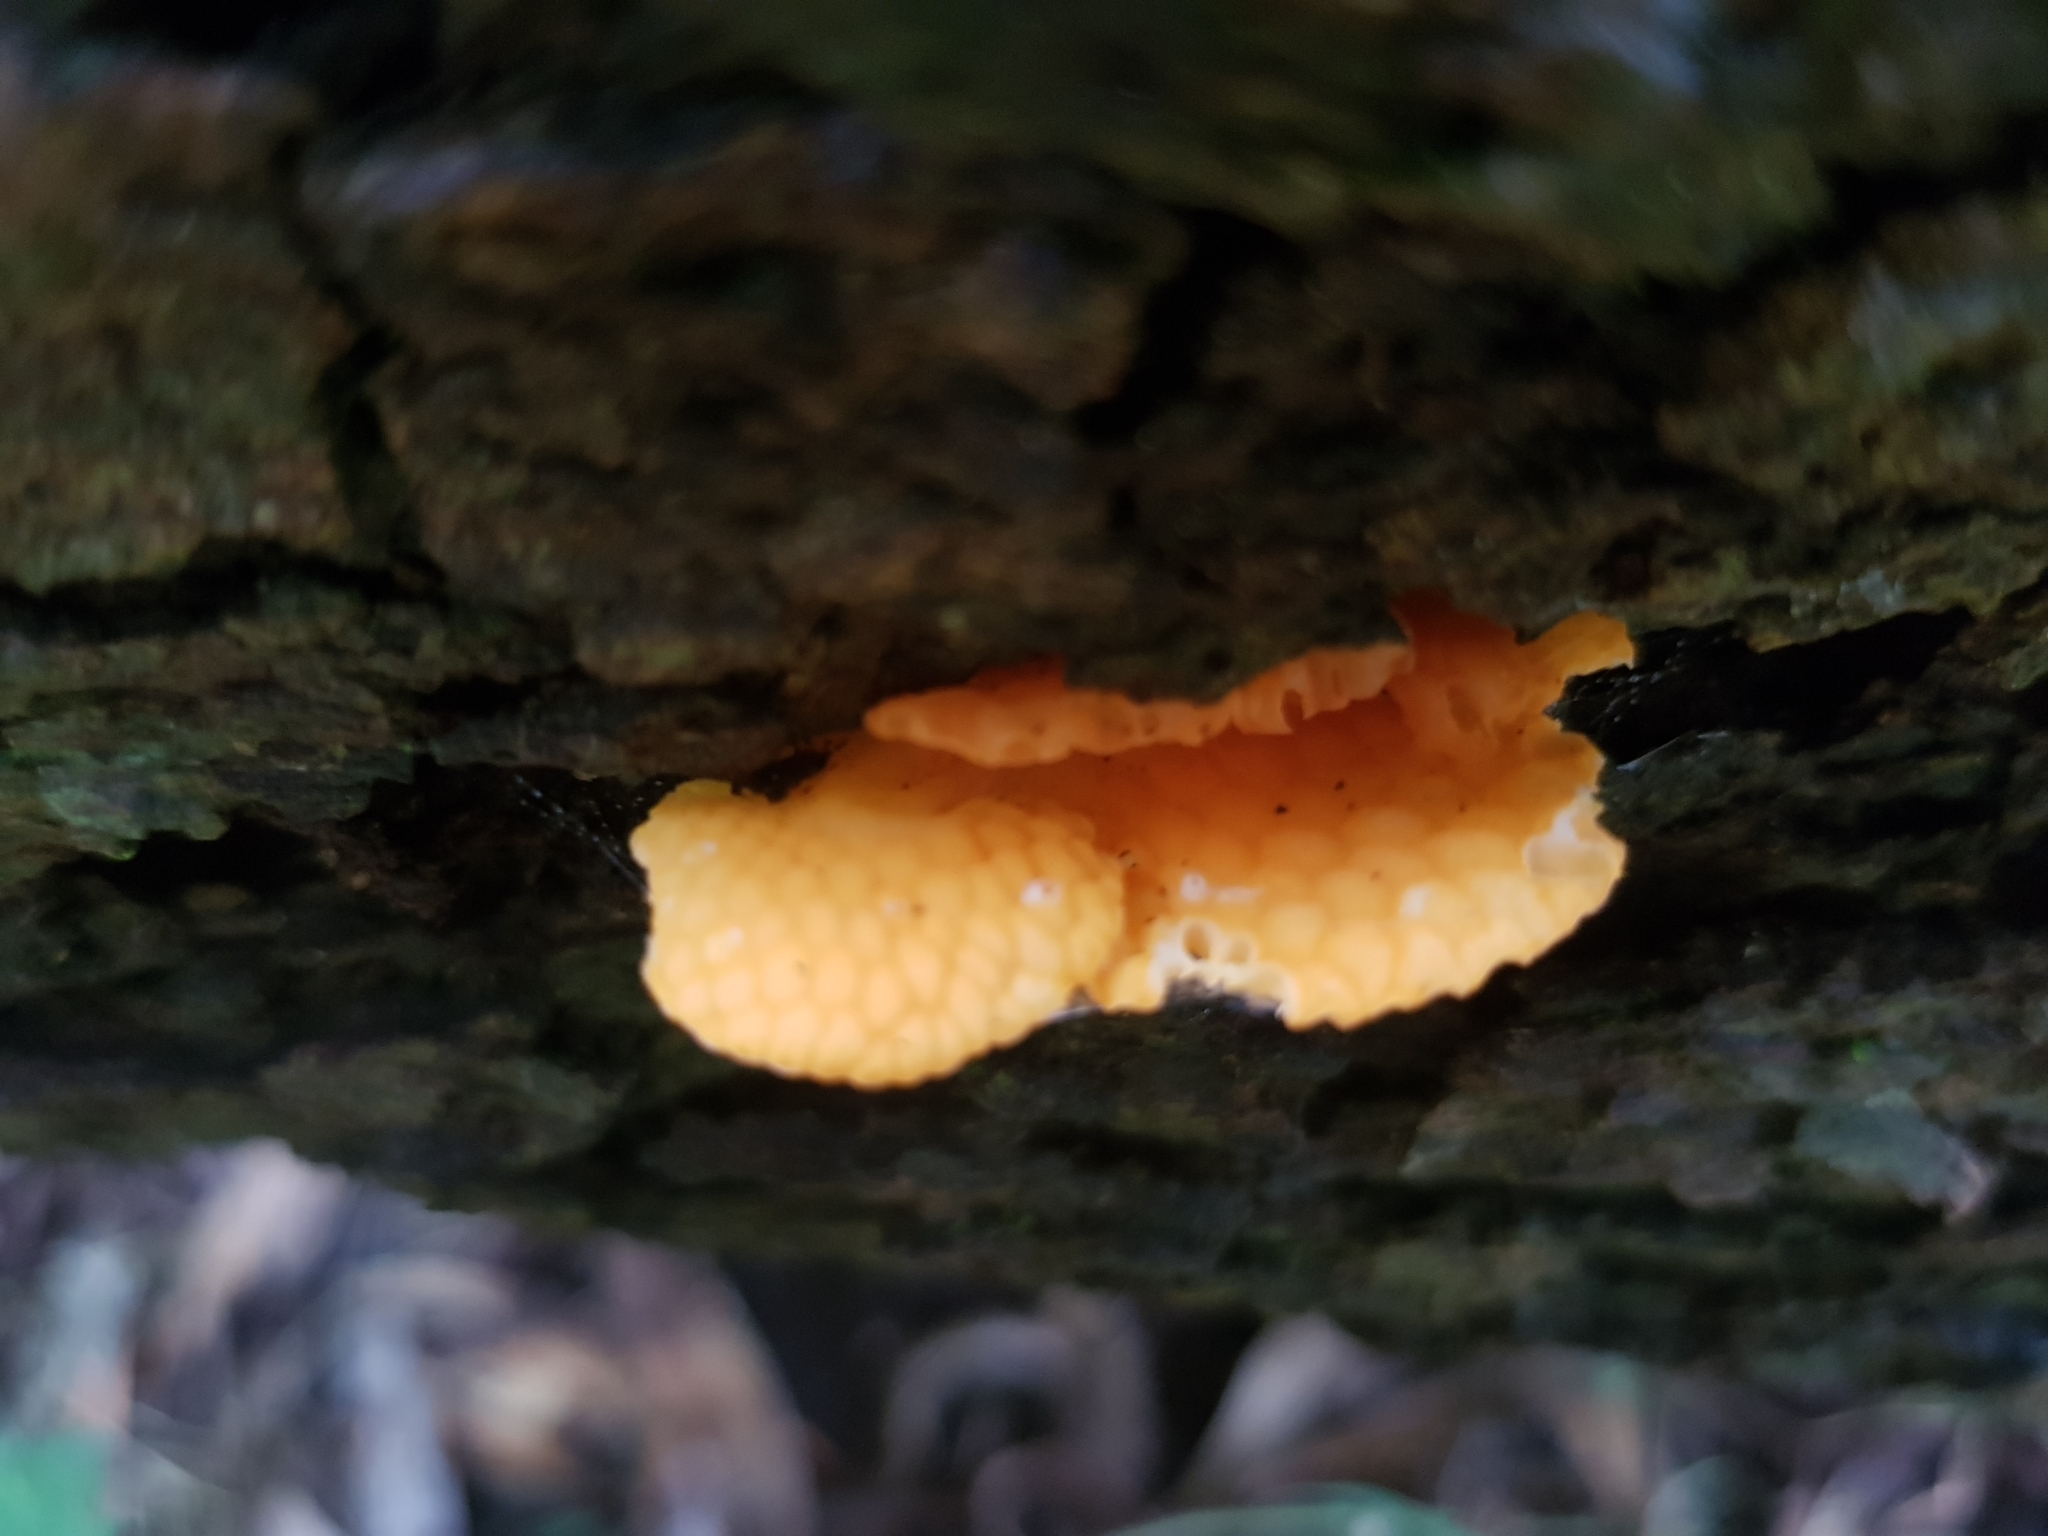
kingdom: Fungi
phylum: Basidiomycota
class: Agaricomycetes
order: Agaricales
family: Mycenaceae
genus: Favolaschia
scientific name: Favolaschia claudopus
